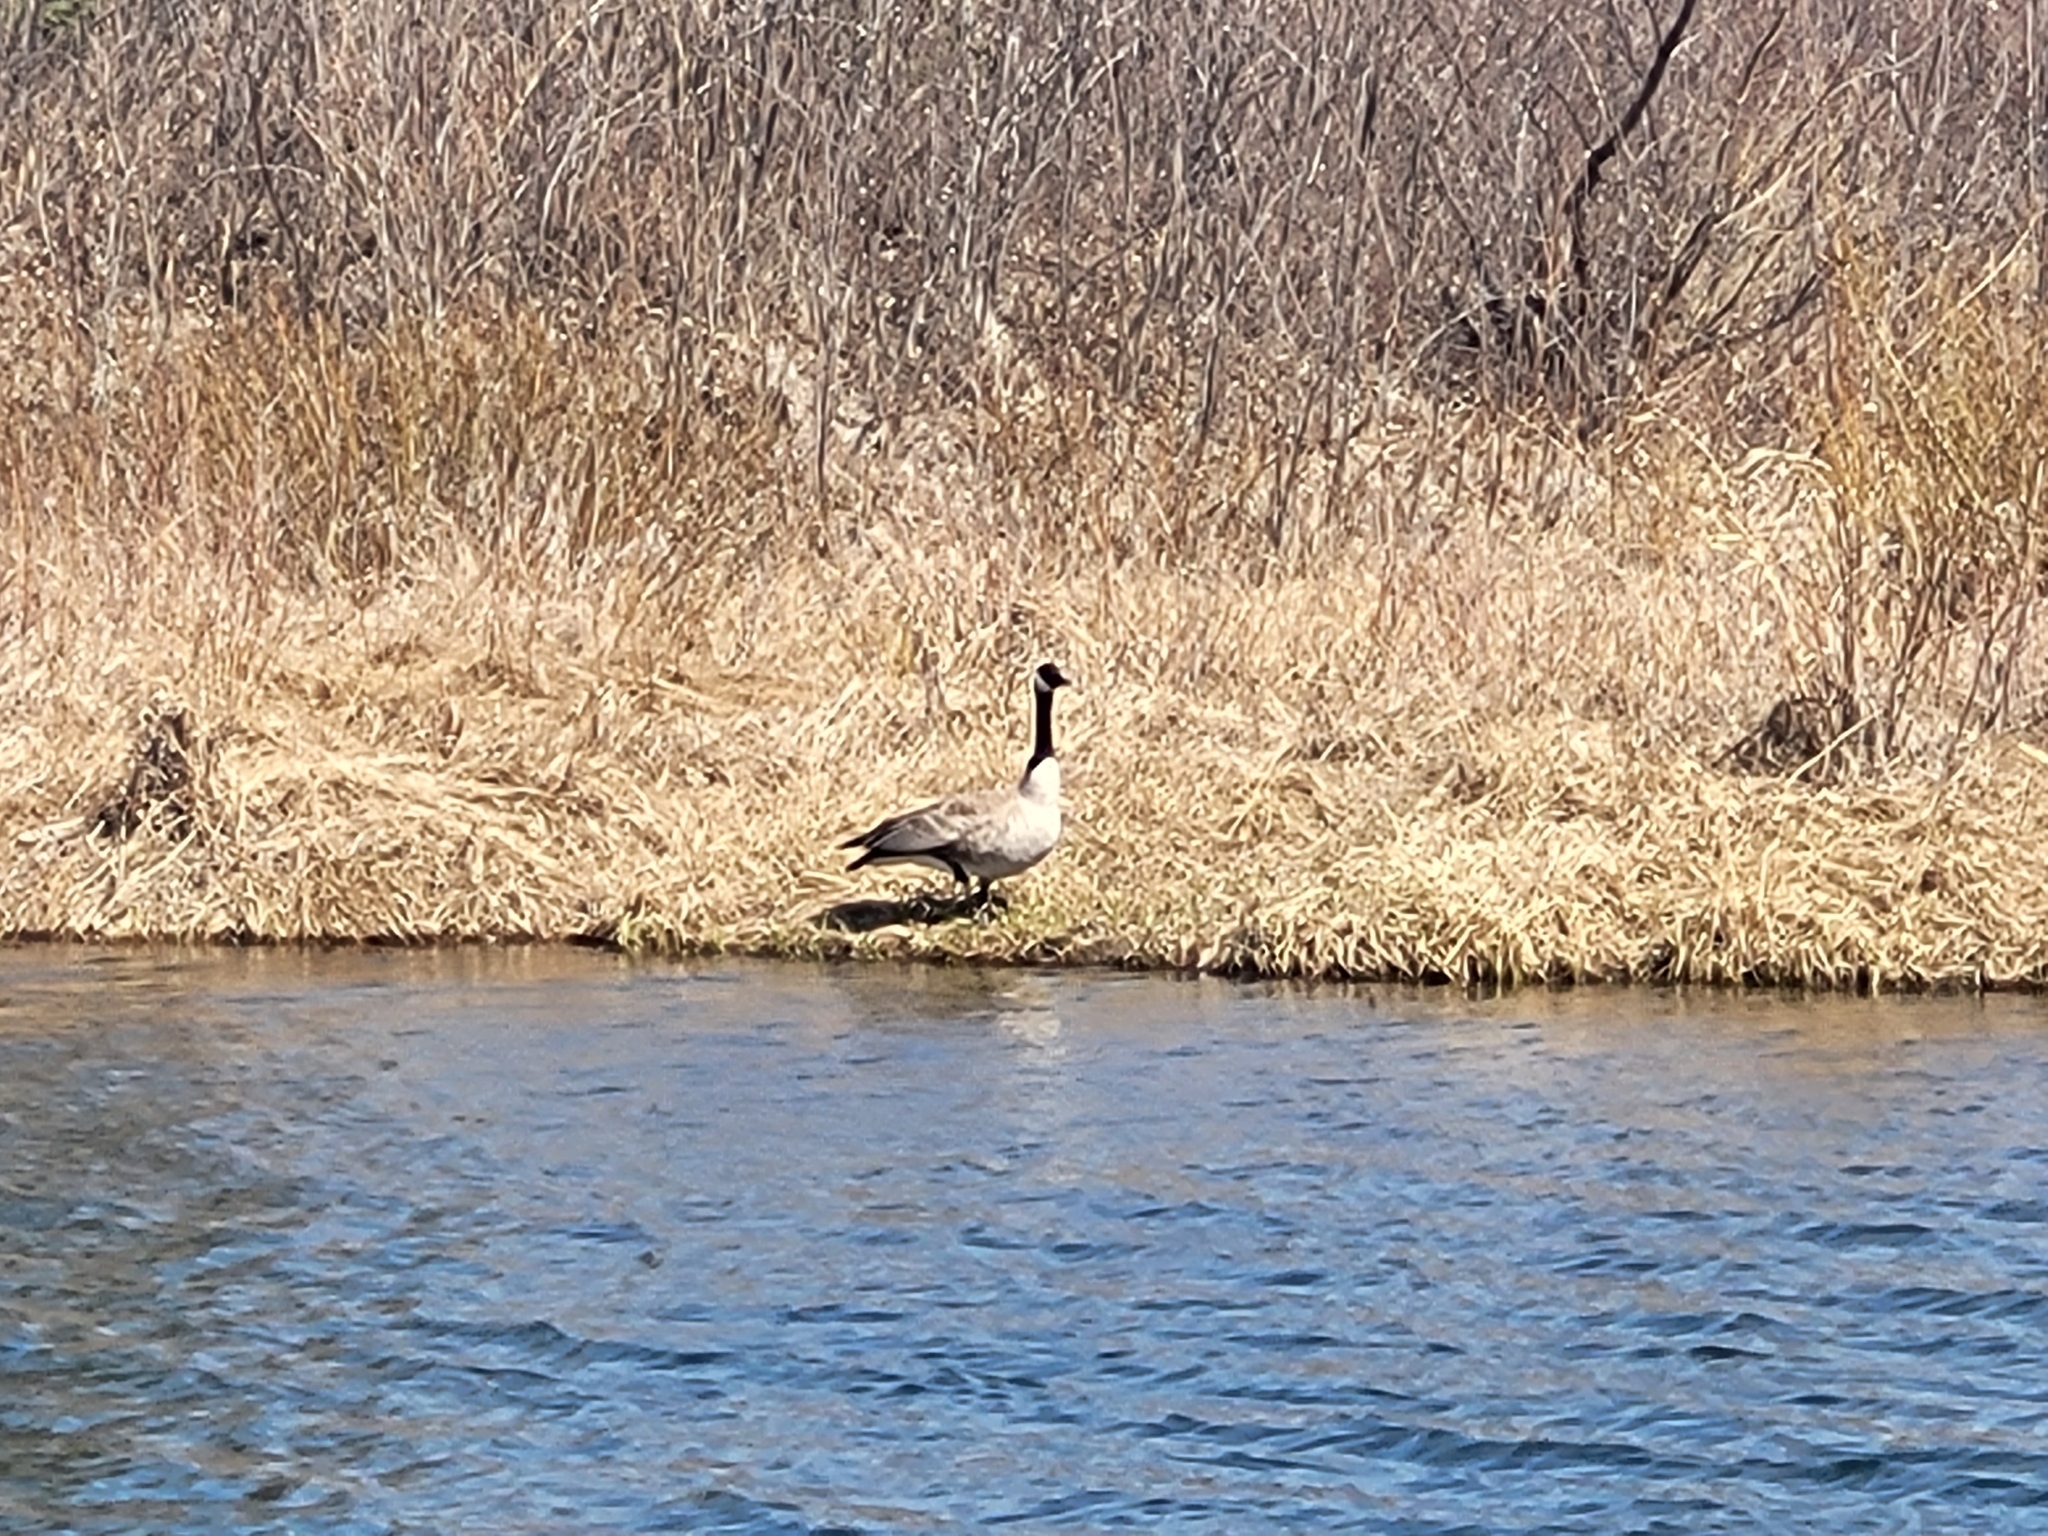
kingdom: Animalia
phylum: Chordata
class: Aves
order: Anseriformes
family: Anatidae
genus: Branta
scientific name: Branta canadensis
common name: Canada goose
